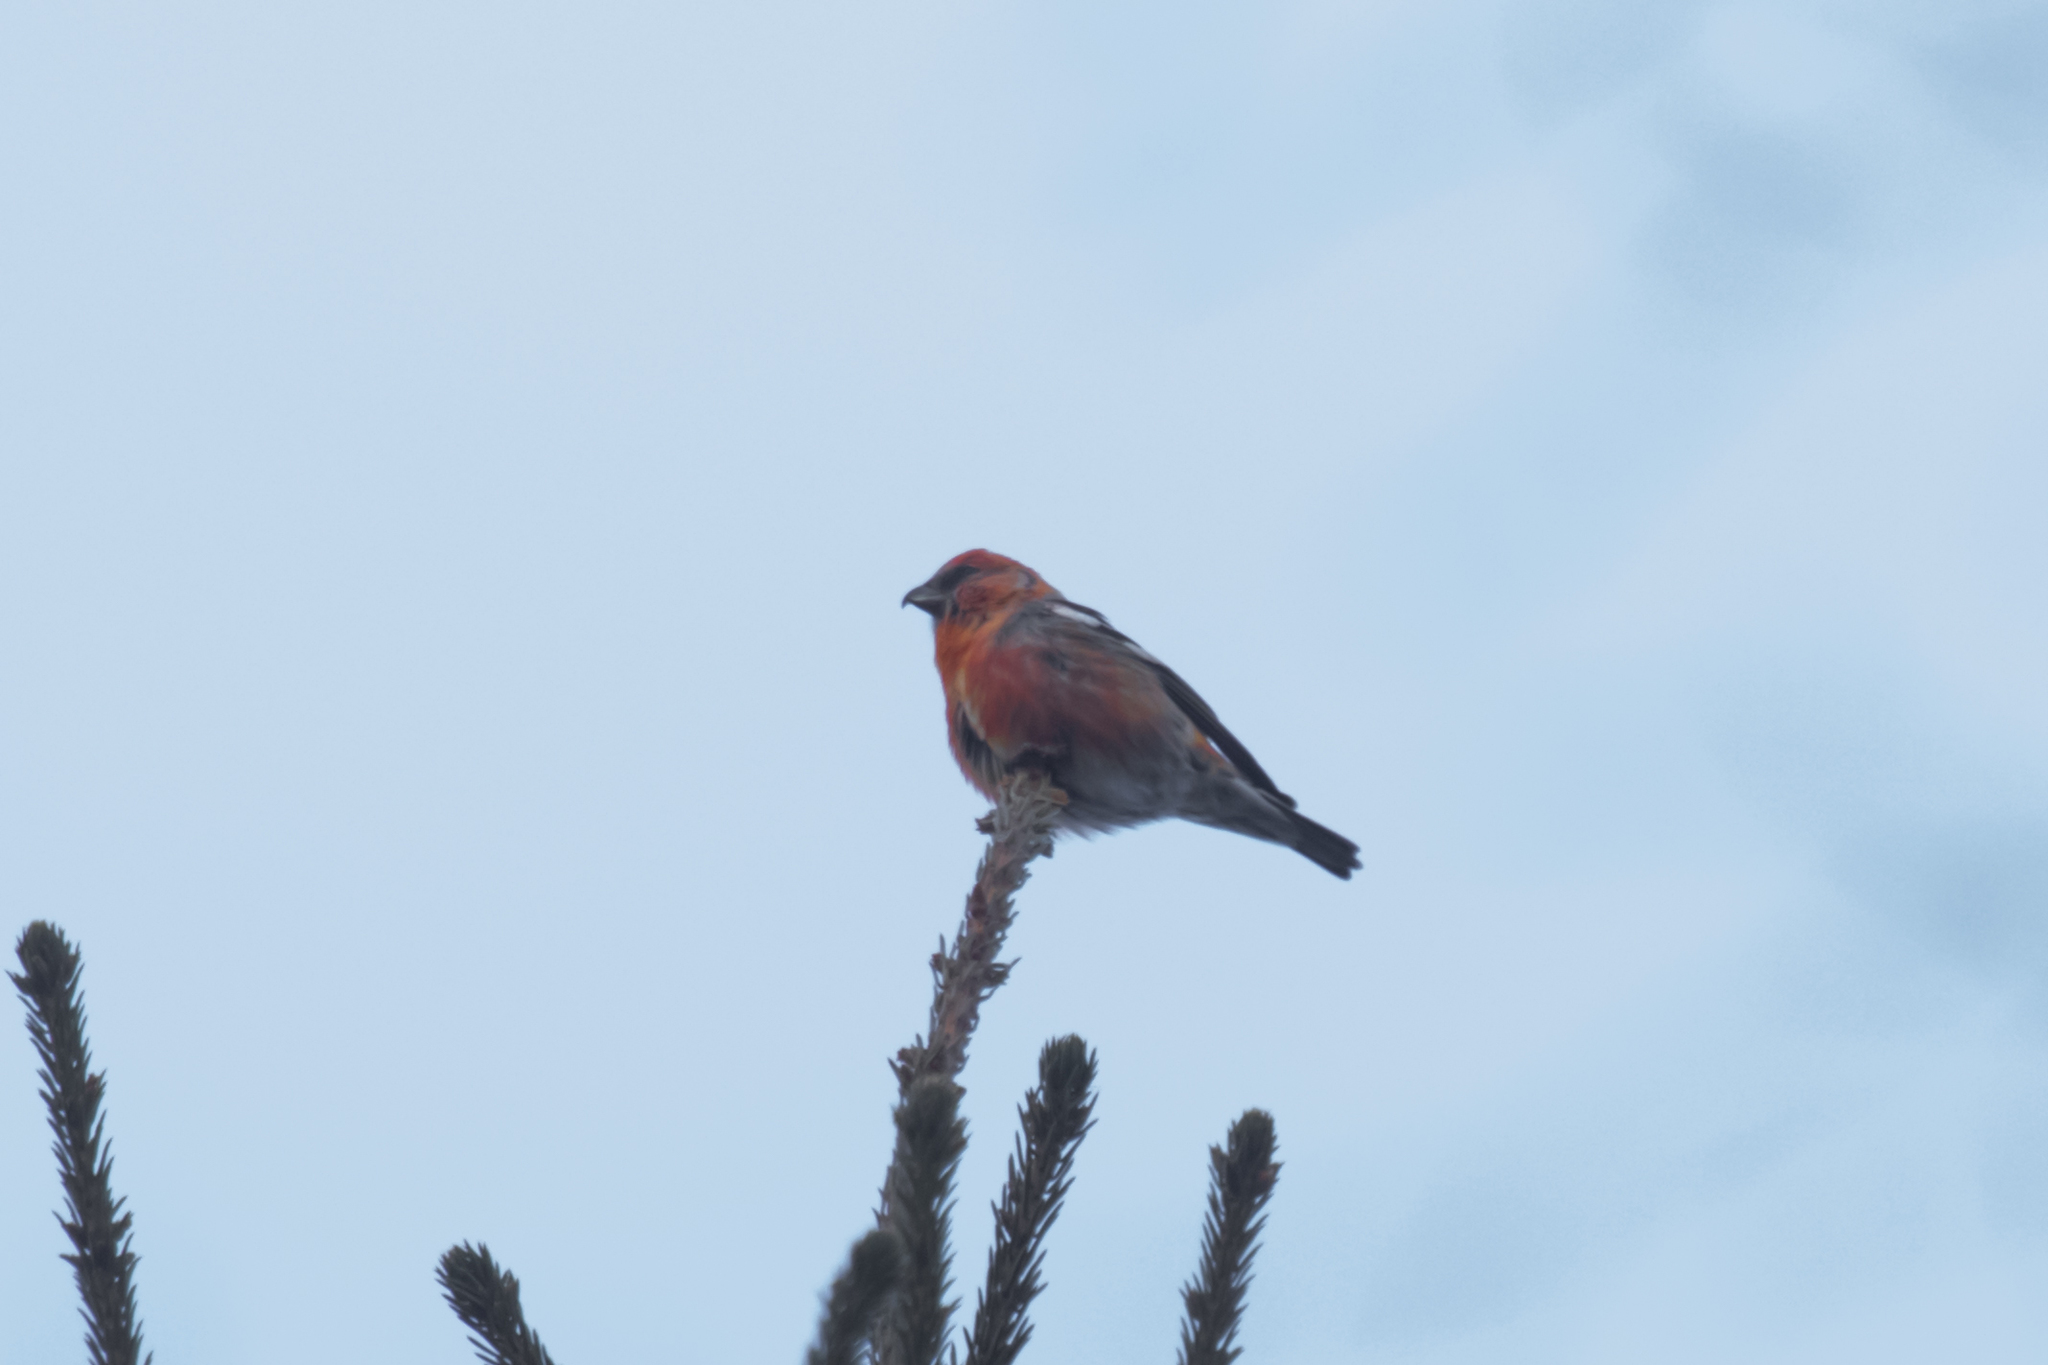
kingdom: Animalia
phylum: Chordata
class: Aves
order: Passeriformes
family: Fringillidae
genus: Loxia
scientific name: Loxia leucoptera
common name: Two-barred crossbill
